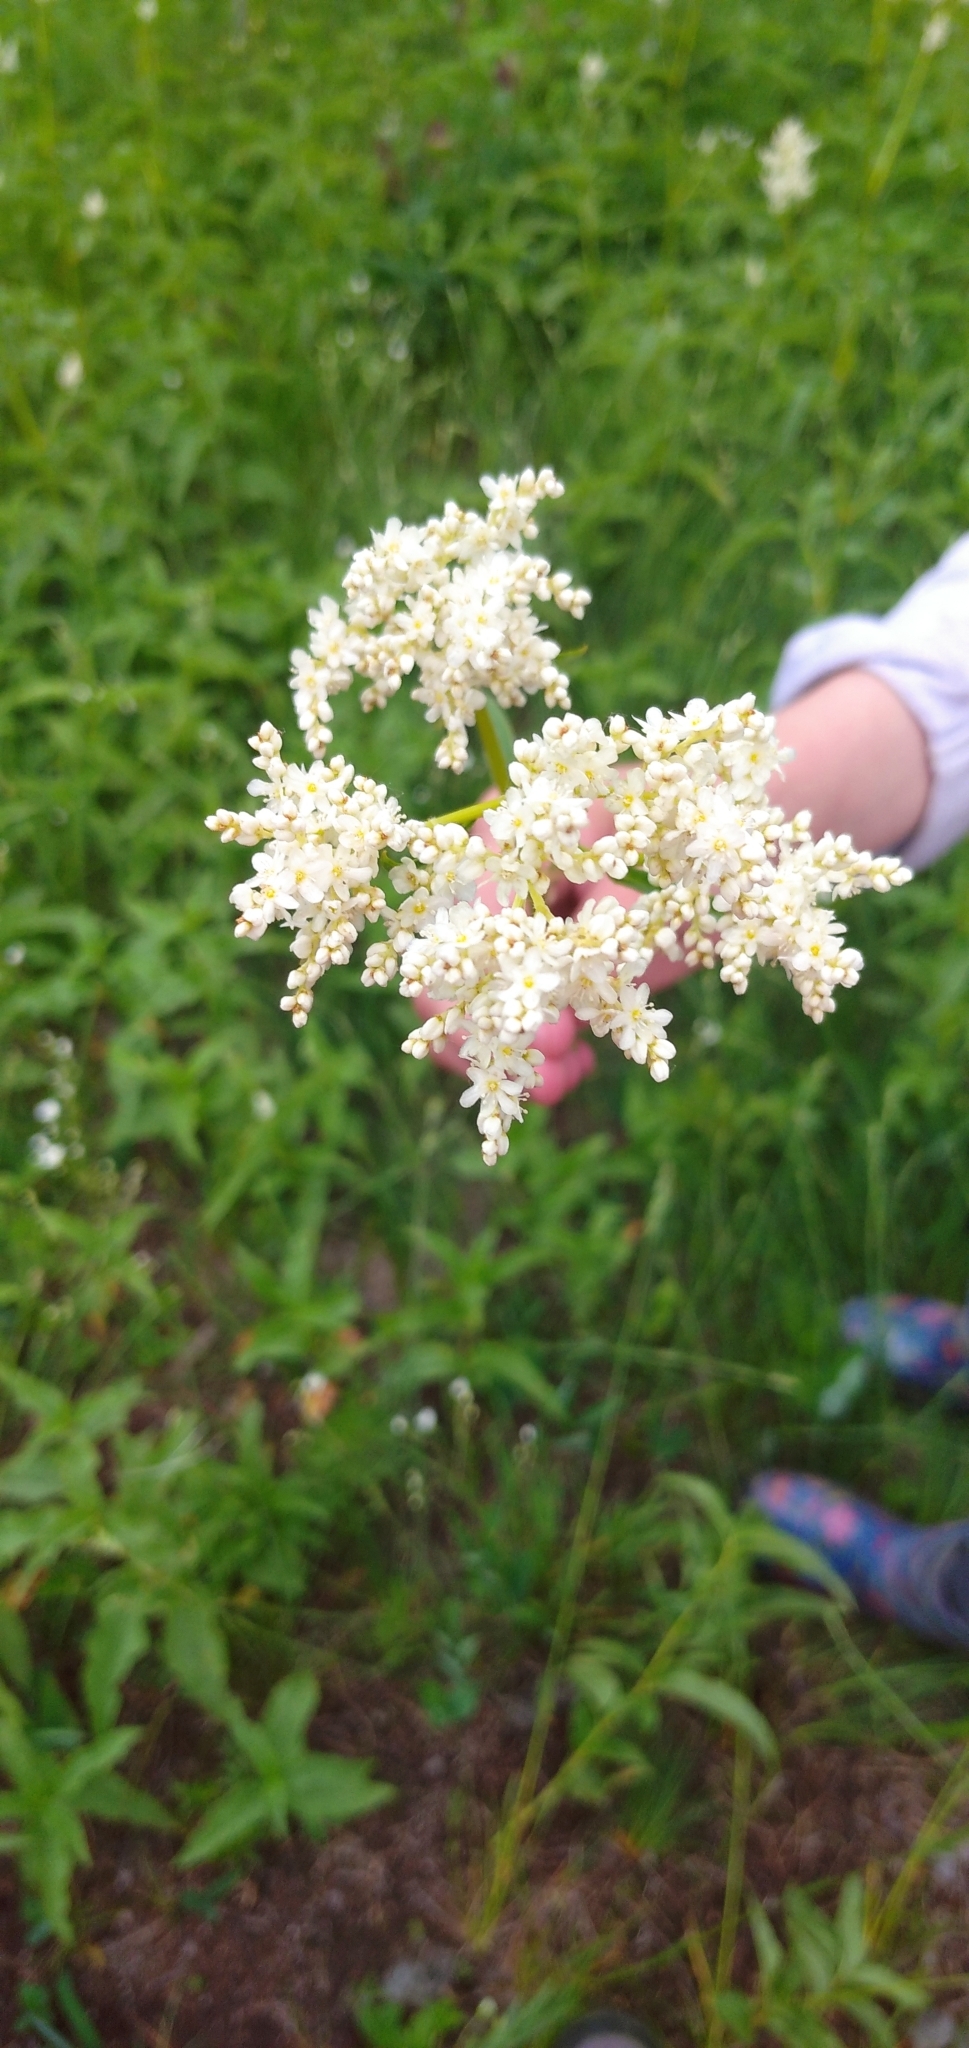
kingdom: Plantae
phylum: Tracheophyta
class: Magnoliopsida
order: Caryophyllales
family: Polygonaceae
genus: Koenigia
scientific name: Koenigia alpina
